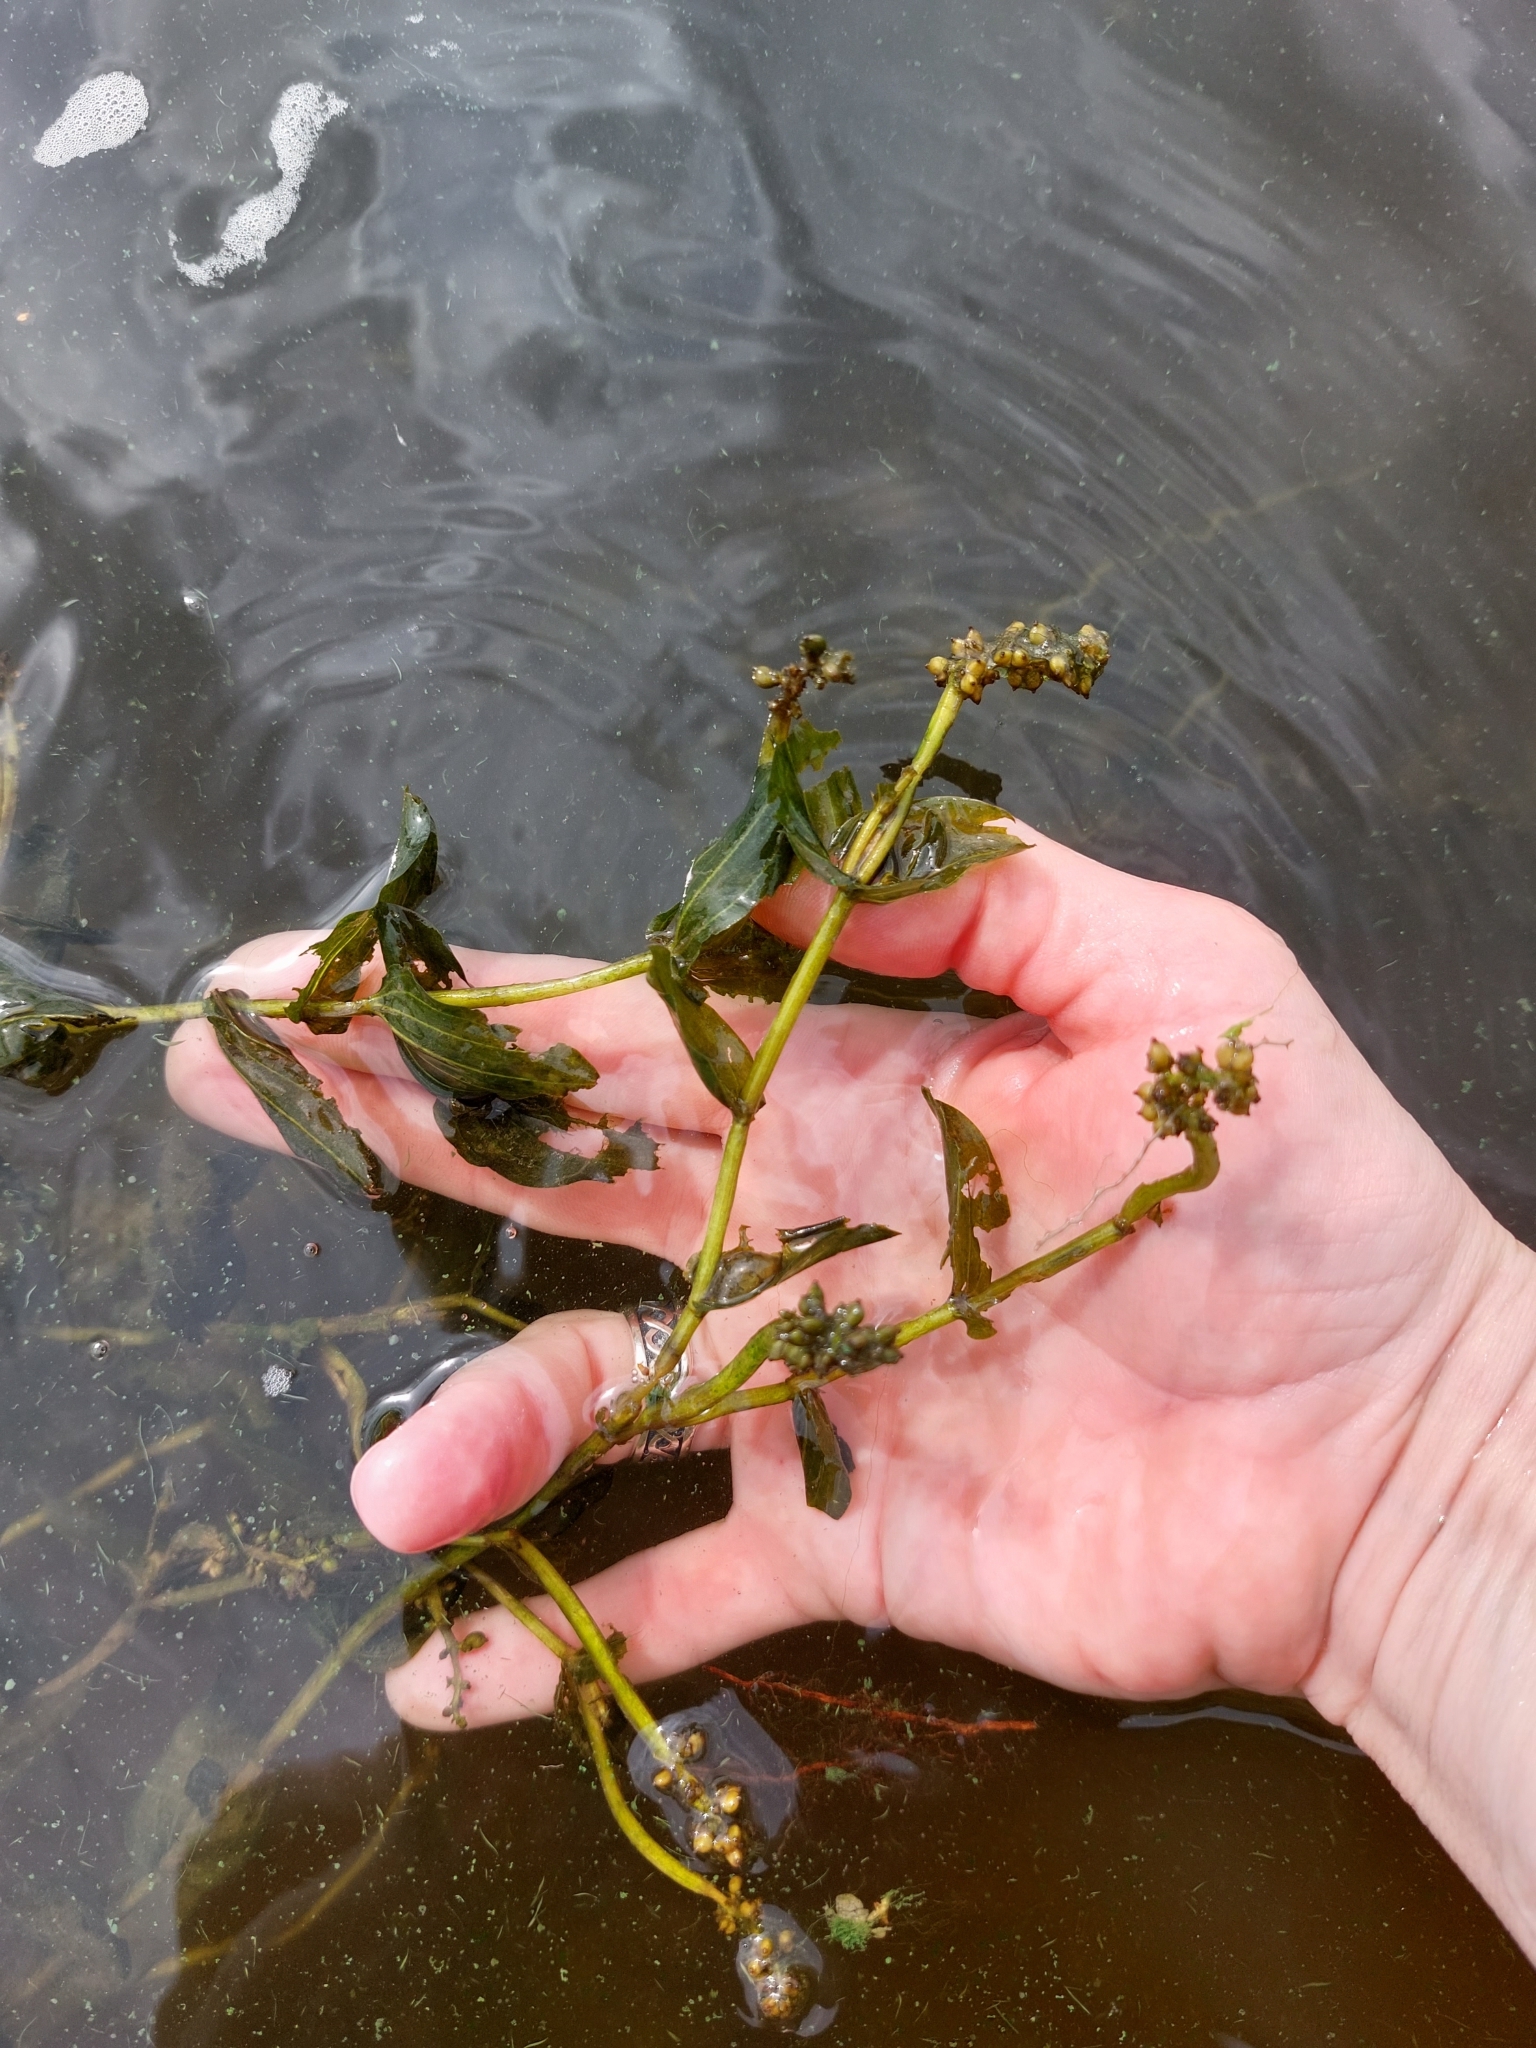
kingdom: Plantae
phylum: Tracheophyta
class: Liliopsida
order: Alismatales
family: Potamogetonaceae
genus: Potamogeton
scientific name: Potamogeton perfoliatus
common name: Perfoliate pondweed
